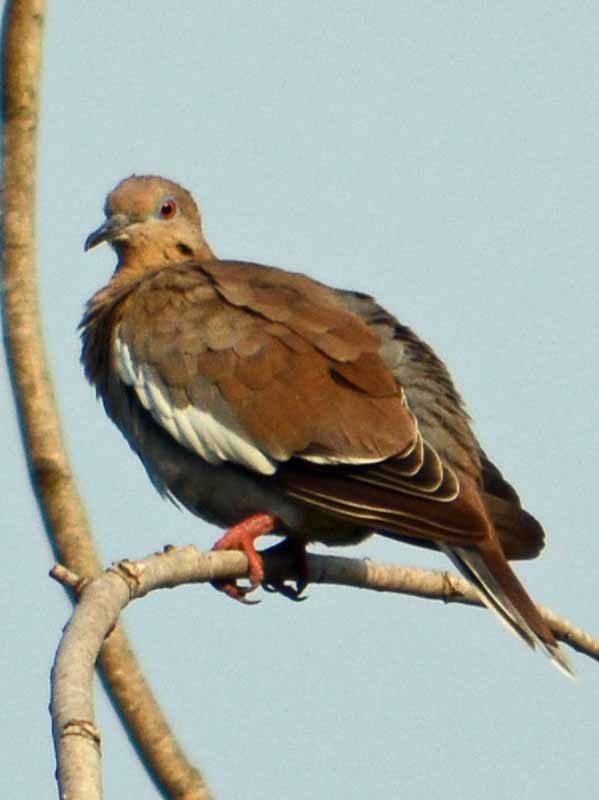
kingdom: Animalia
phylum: Chordata
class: Aves
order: Columbiformes
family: Columbidae
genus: Zenaida
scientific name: Zenaida asiatica
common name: White-winged dove
